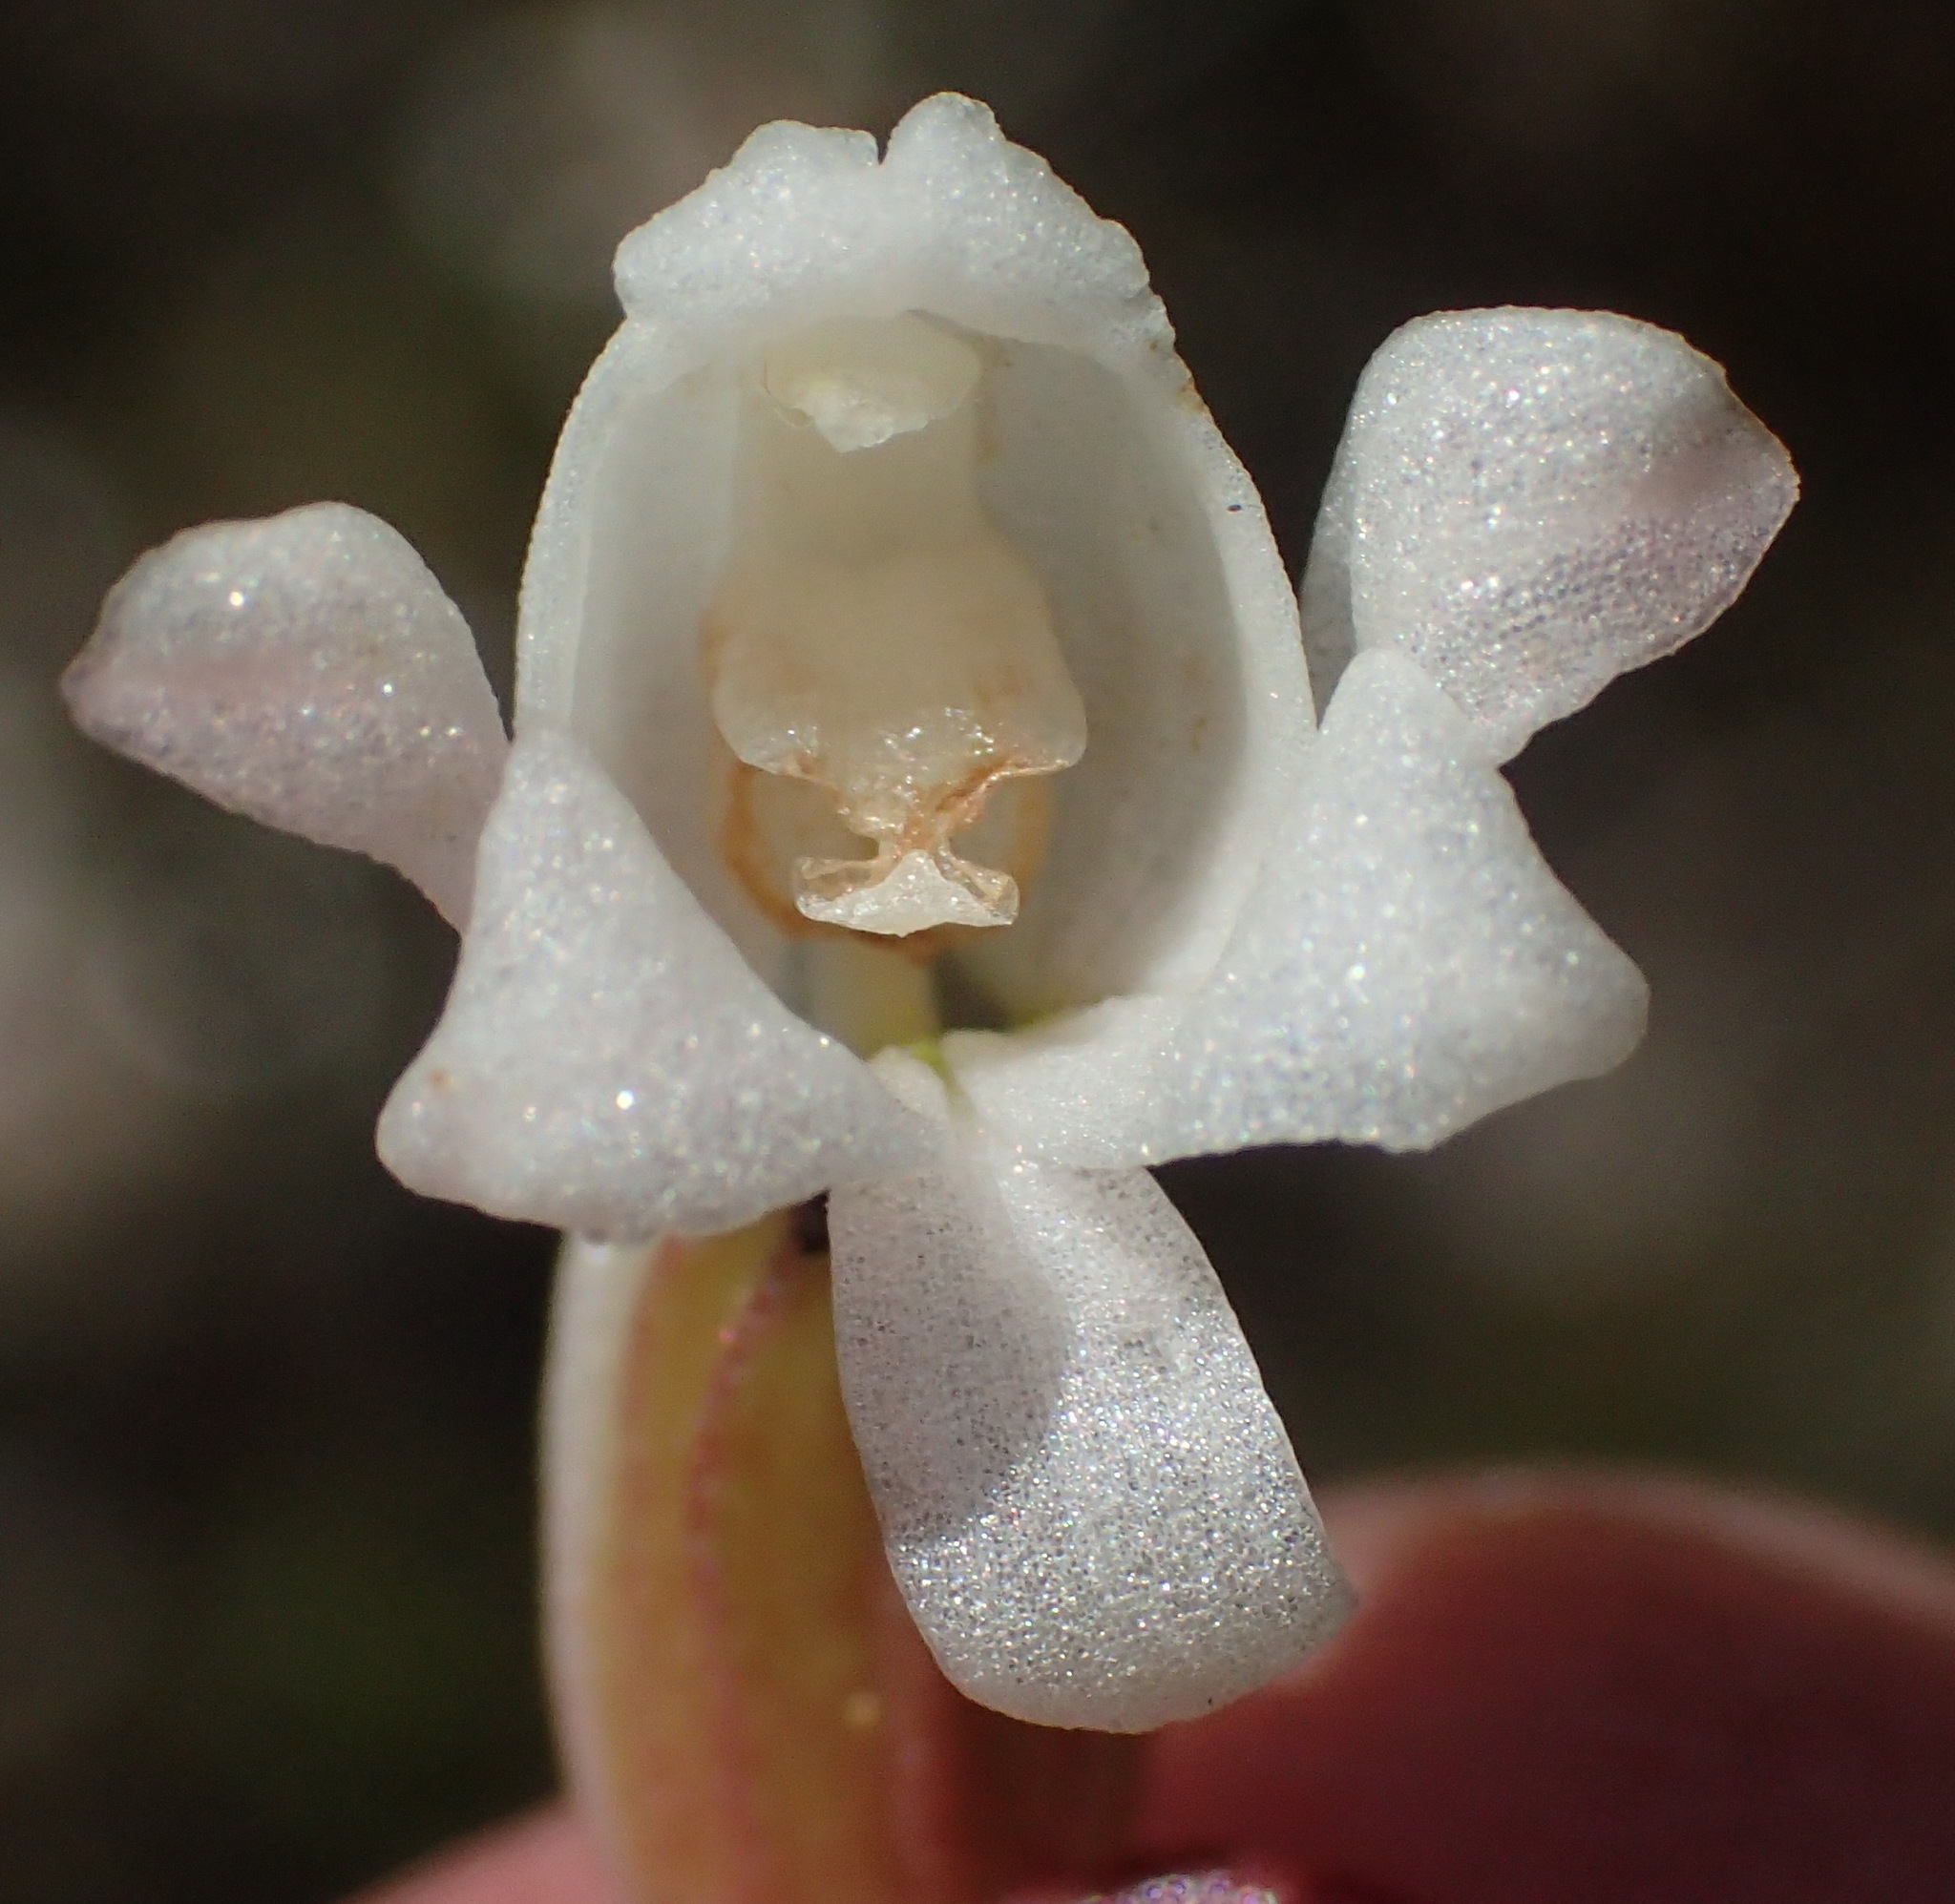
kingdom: Plantae
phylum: Tracheophyta
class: Liliopsida
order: Asparagales
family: Orchidaceae
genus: Satyrium
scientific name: Satyrium acuminatum
